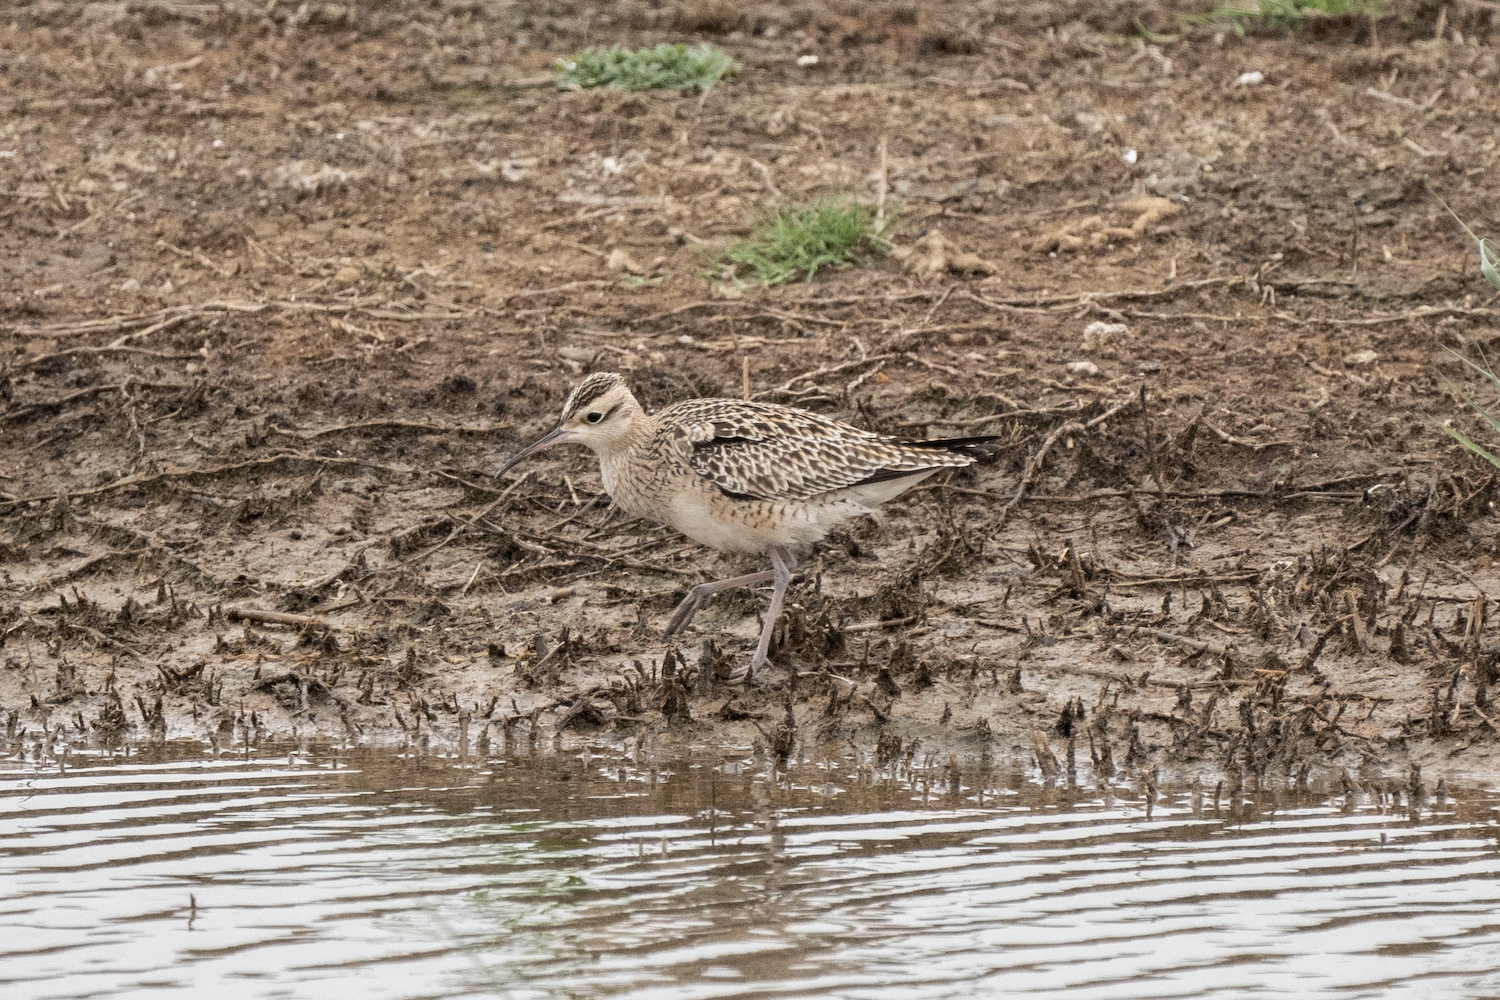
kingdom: Animalia
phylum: Chordata
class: Aves
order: Charadriiformes
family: Scolopacidae
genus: Numenius
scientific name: Numenius minutus
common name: Little curlew
